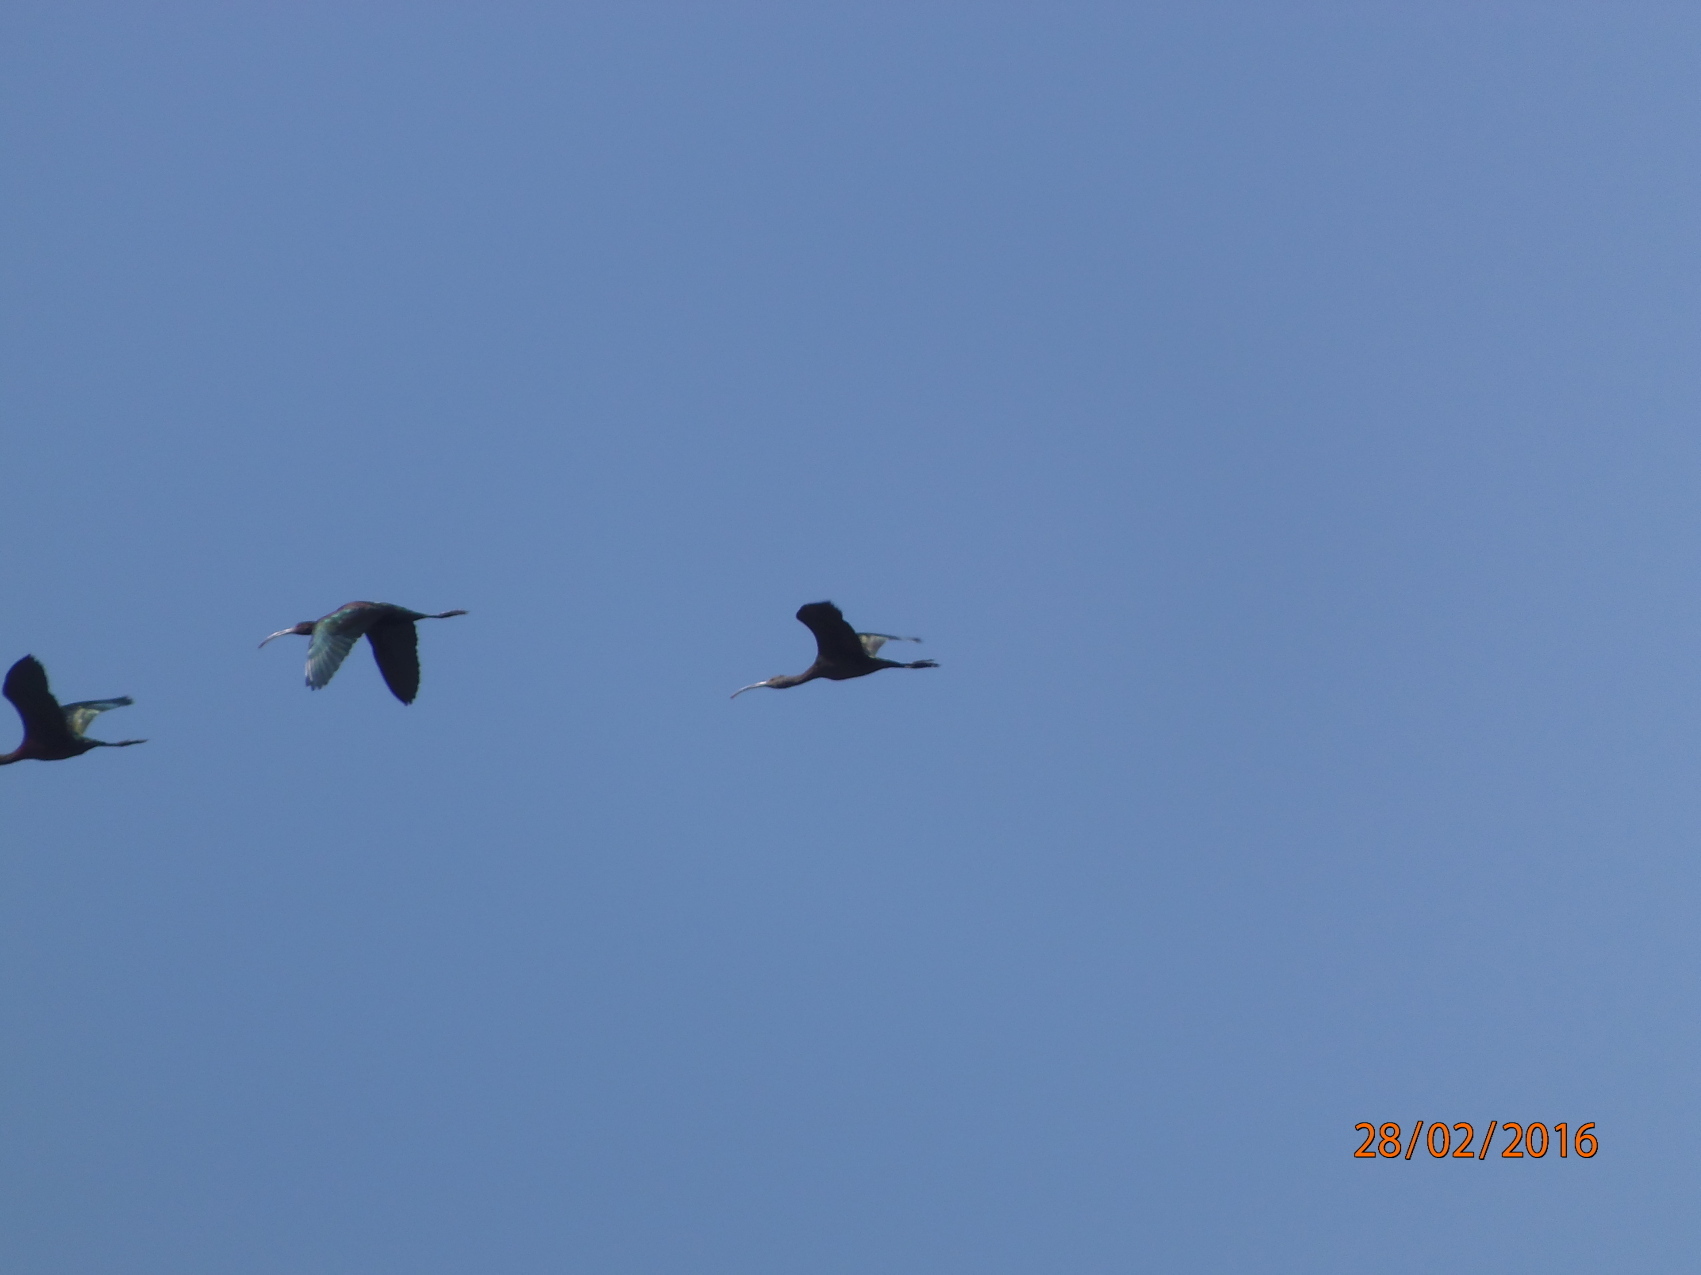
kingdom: Animalia
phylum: Chordata
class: Aves
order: Pelecaniformes
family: Threskiornithidae
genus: Plegadis
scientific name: Plegadis chihi
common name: White-faced ibis
